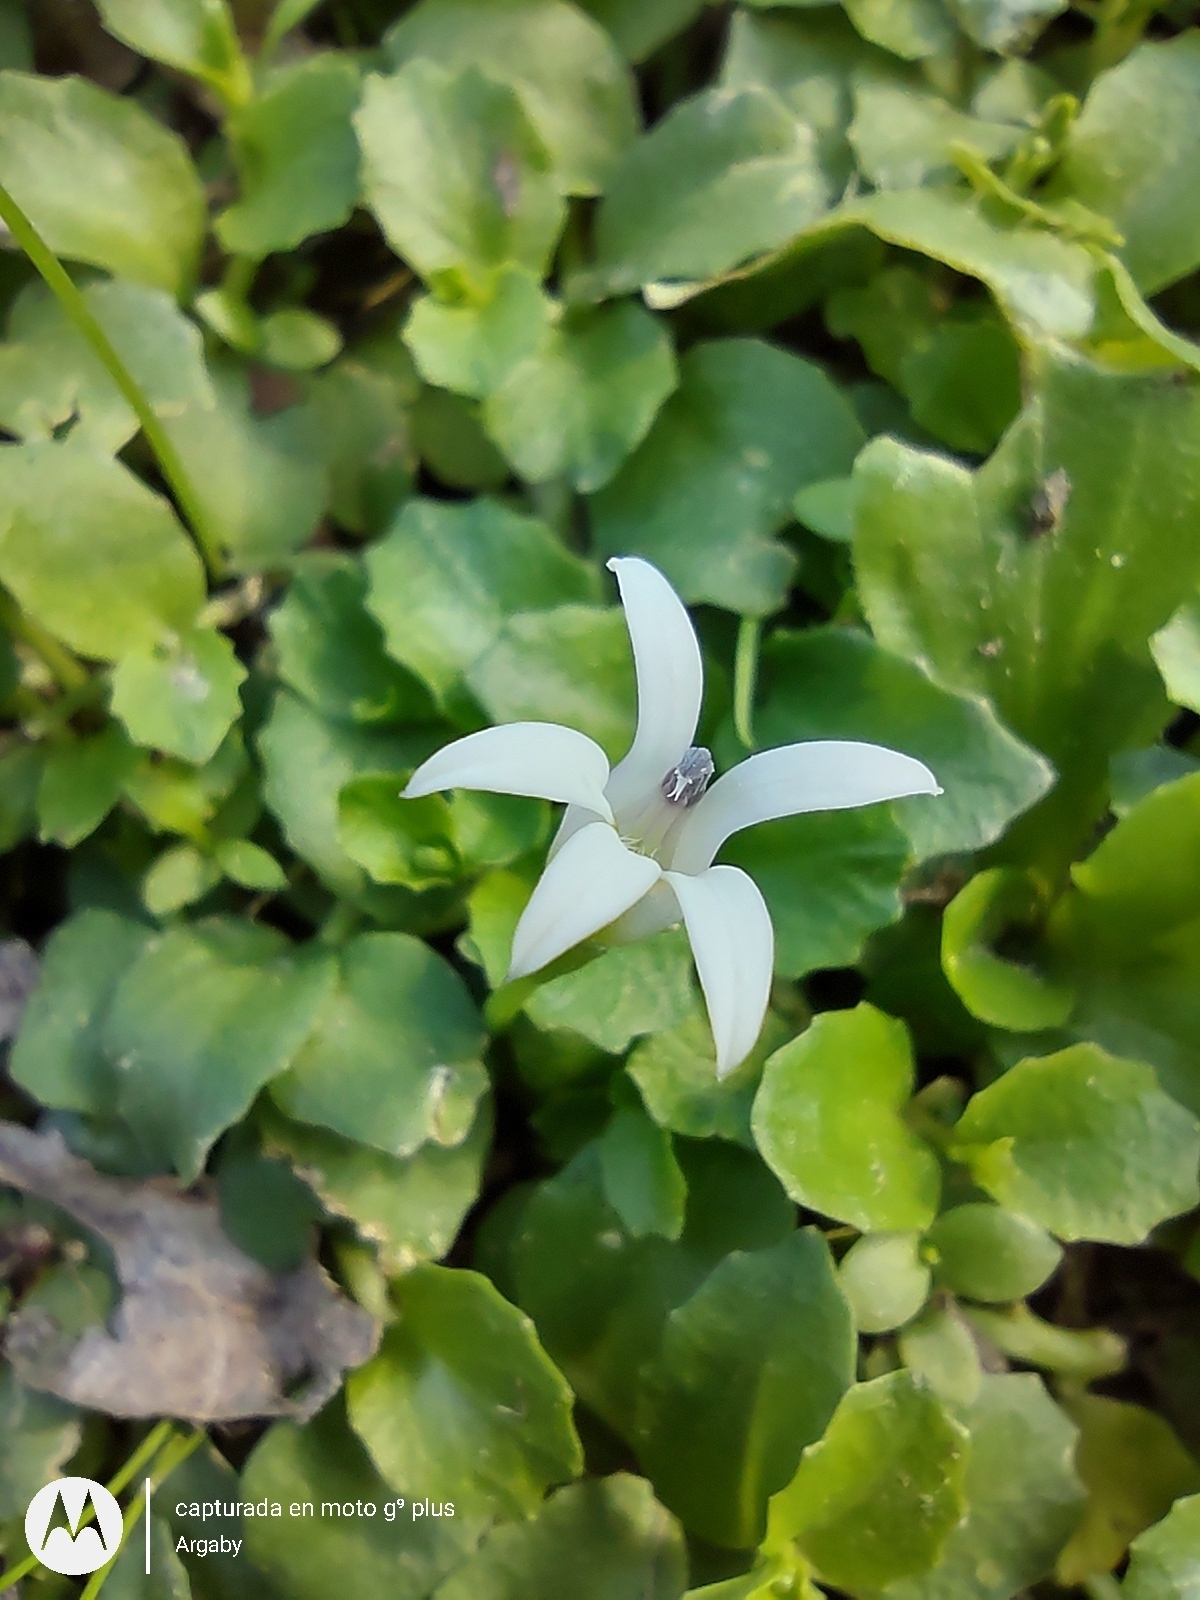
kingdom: Plantae
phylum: Tracheophyta
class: Magnoliopsida
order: Asterales
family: Campanulaceae
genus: Lobelia
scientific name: Lobelia hederacea
